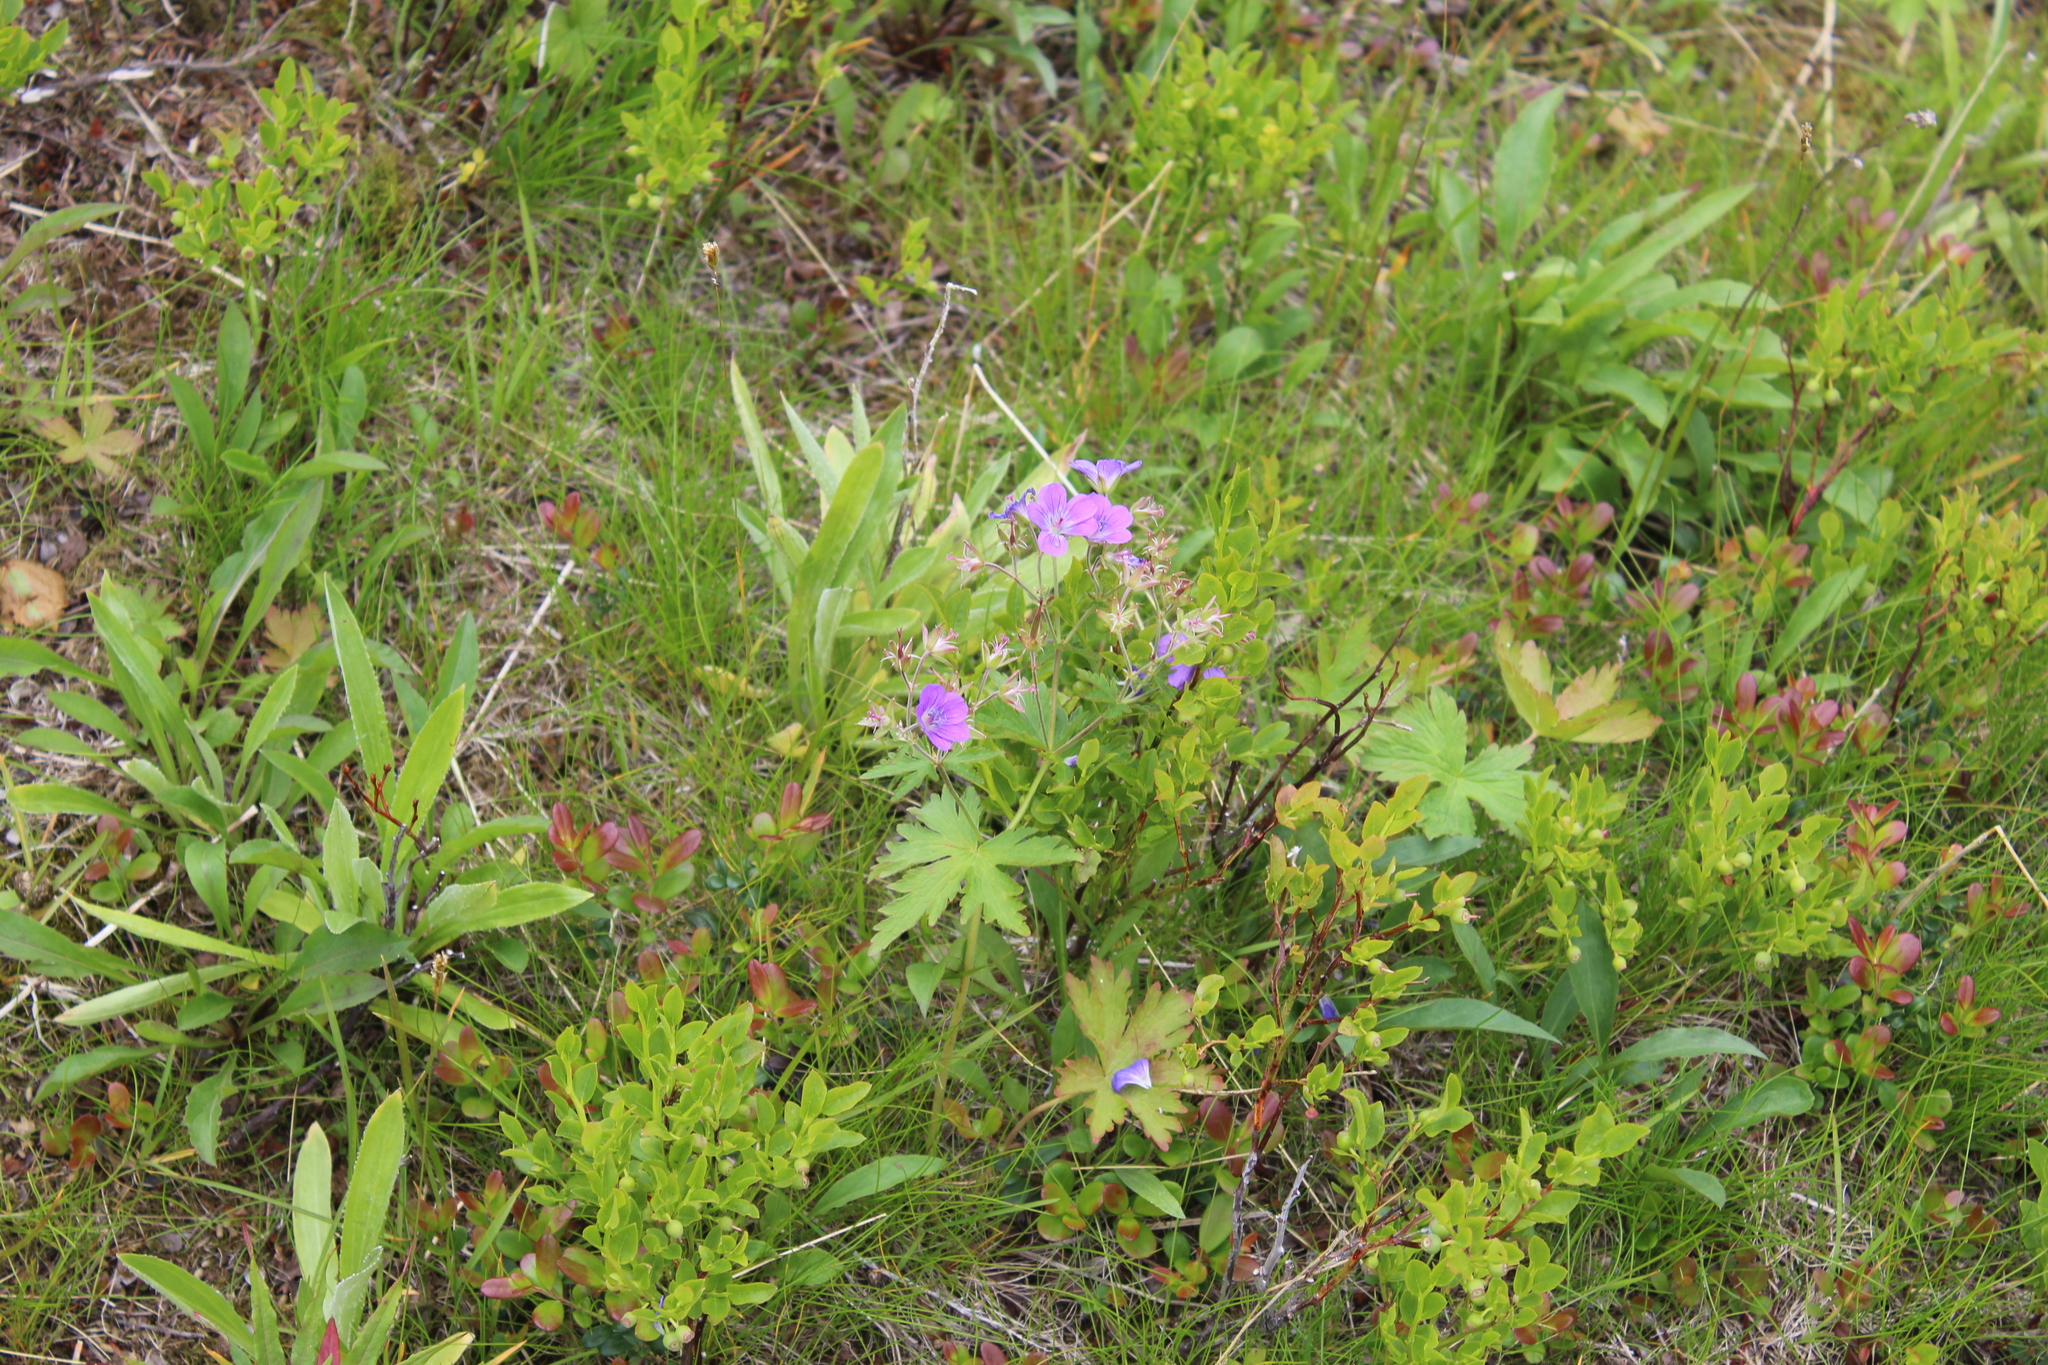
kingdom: Plantae
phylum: Tracheophyta
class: Magnoliopsida
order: Geraniales
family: Geraniaceae
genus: Geranium
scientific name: Geranium sylvaticum
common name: Wood crane's-bill
